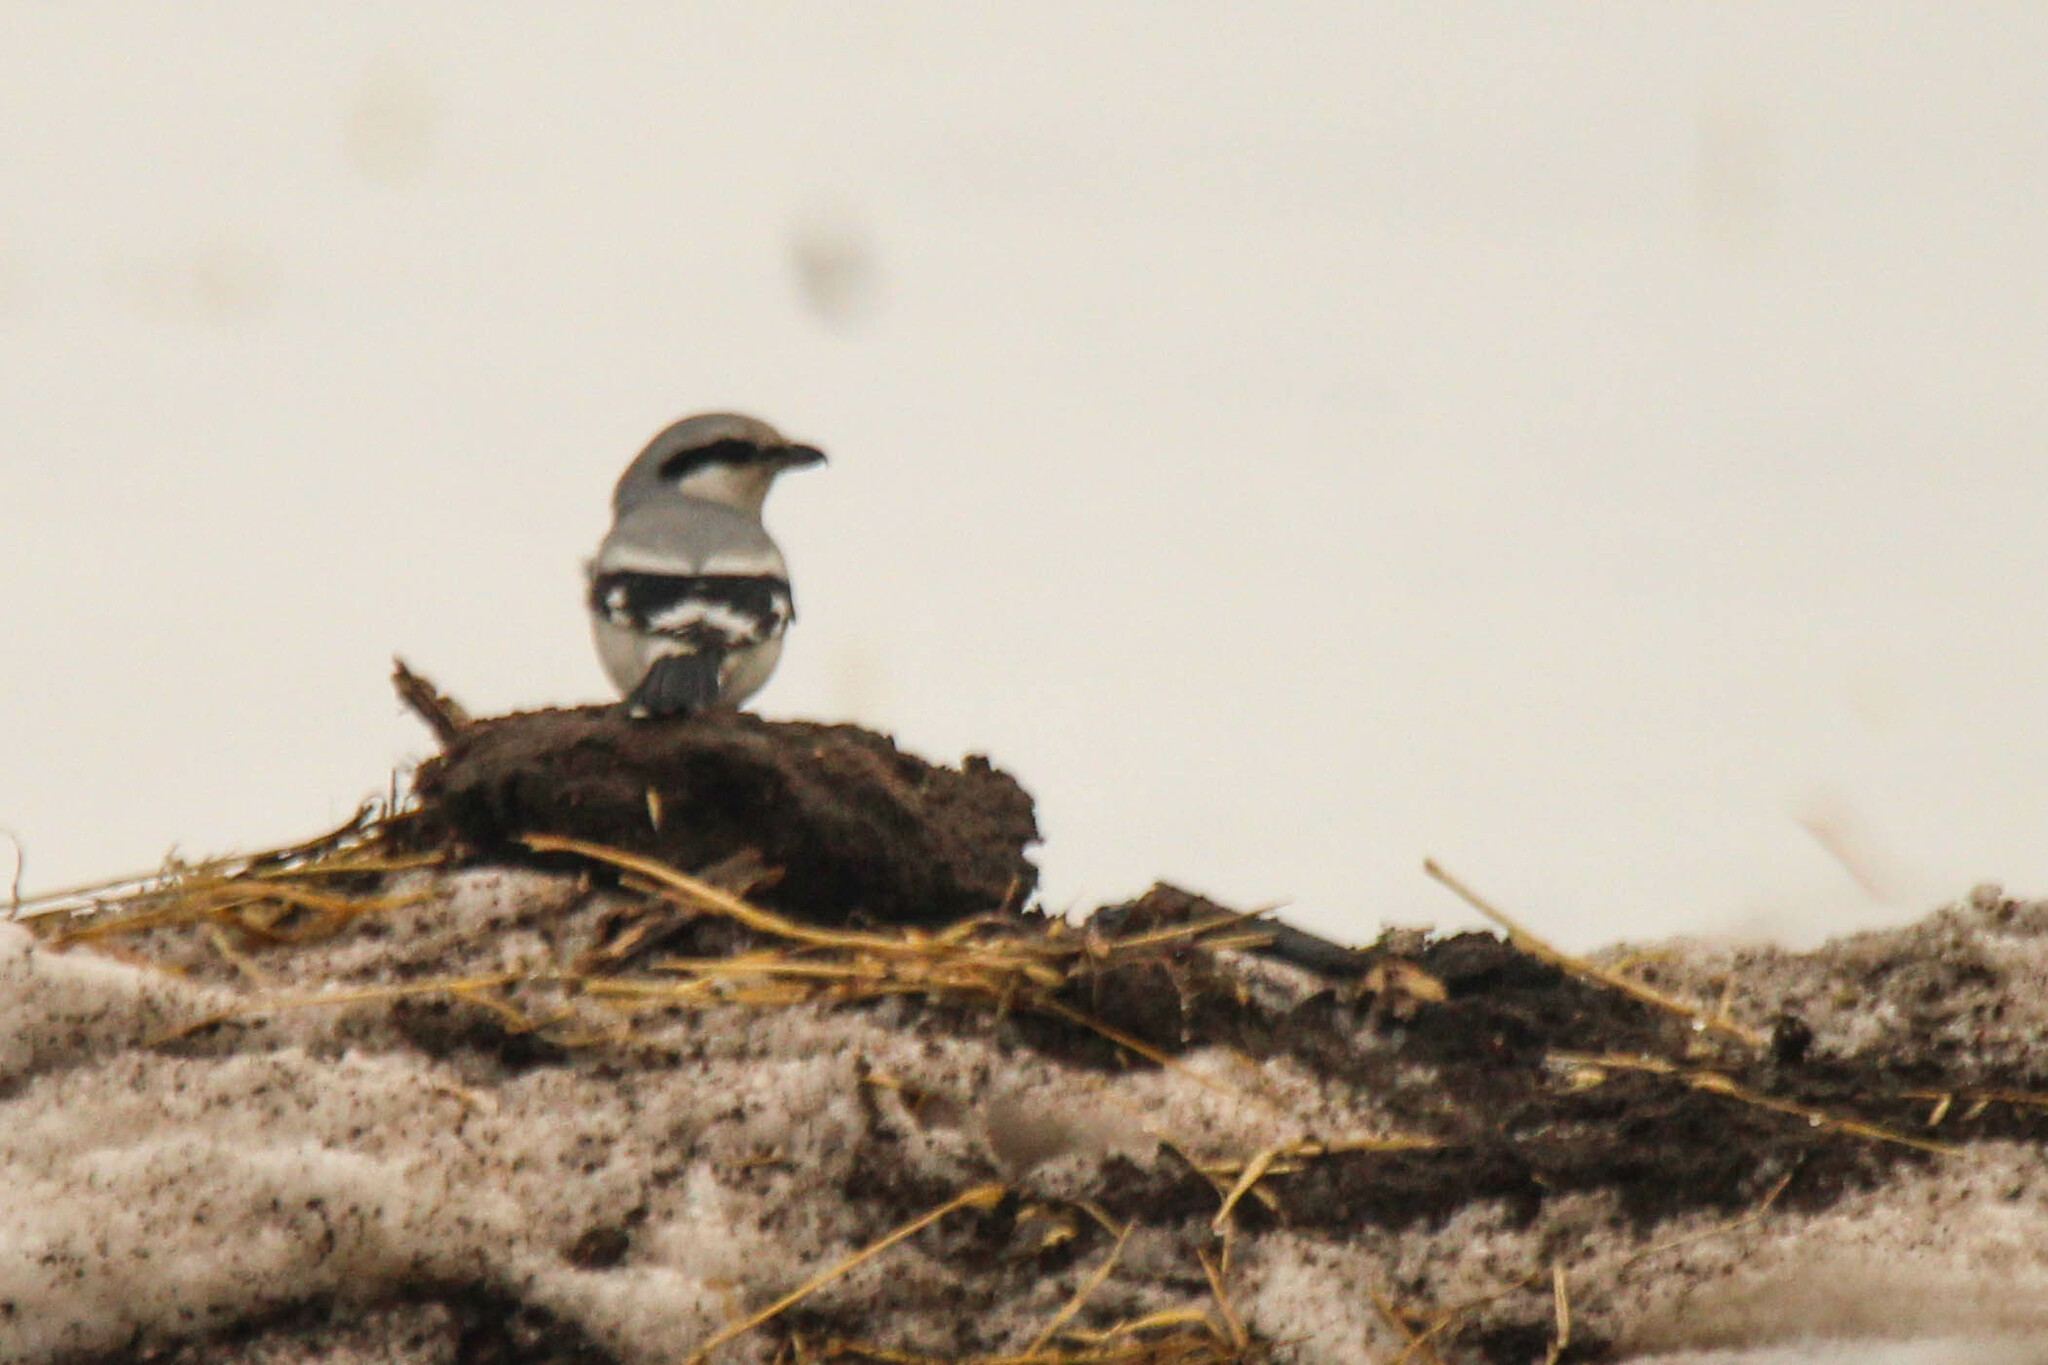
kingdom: Animalia
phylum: Chordata
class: Aves
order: Passeriformes
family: Laniidae
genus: Lanius
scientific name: Lanius excubitor
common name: Great grey shrike
